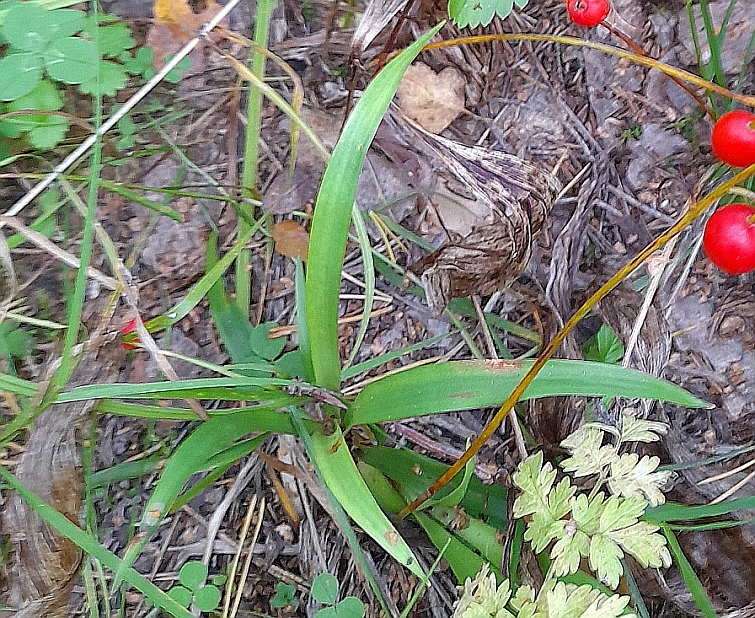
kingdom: Plantae
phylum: Tracheophyta
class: Liliopsida
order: Poales
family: Juncaceae
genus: Luzula
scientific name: Luzula pilosa
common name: Hairy wood-rush
